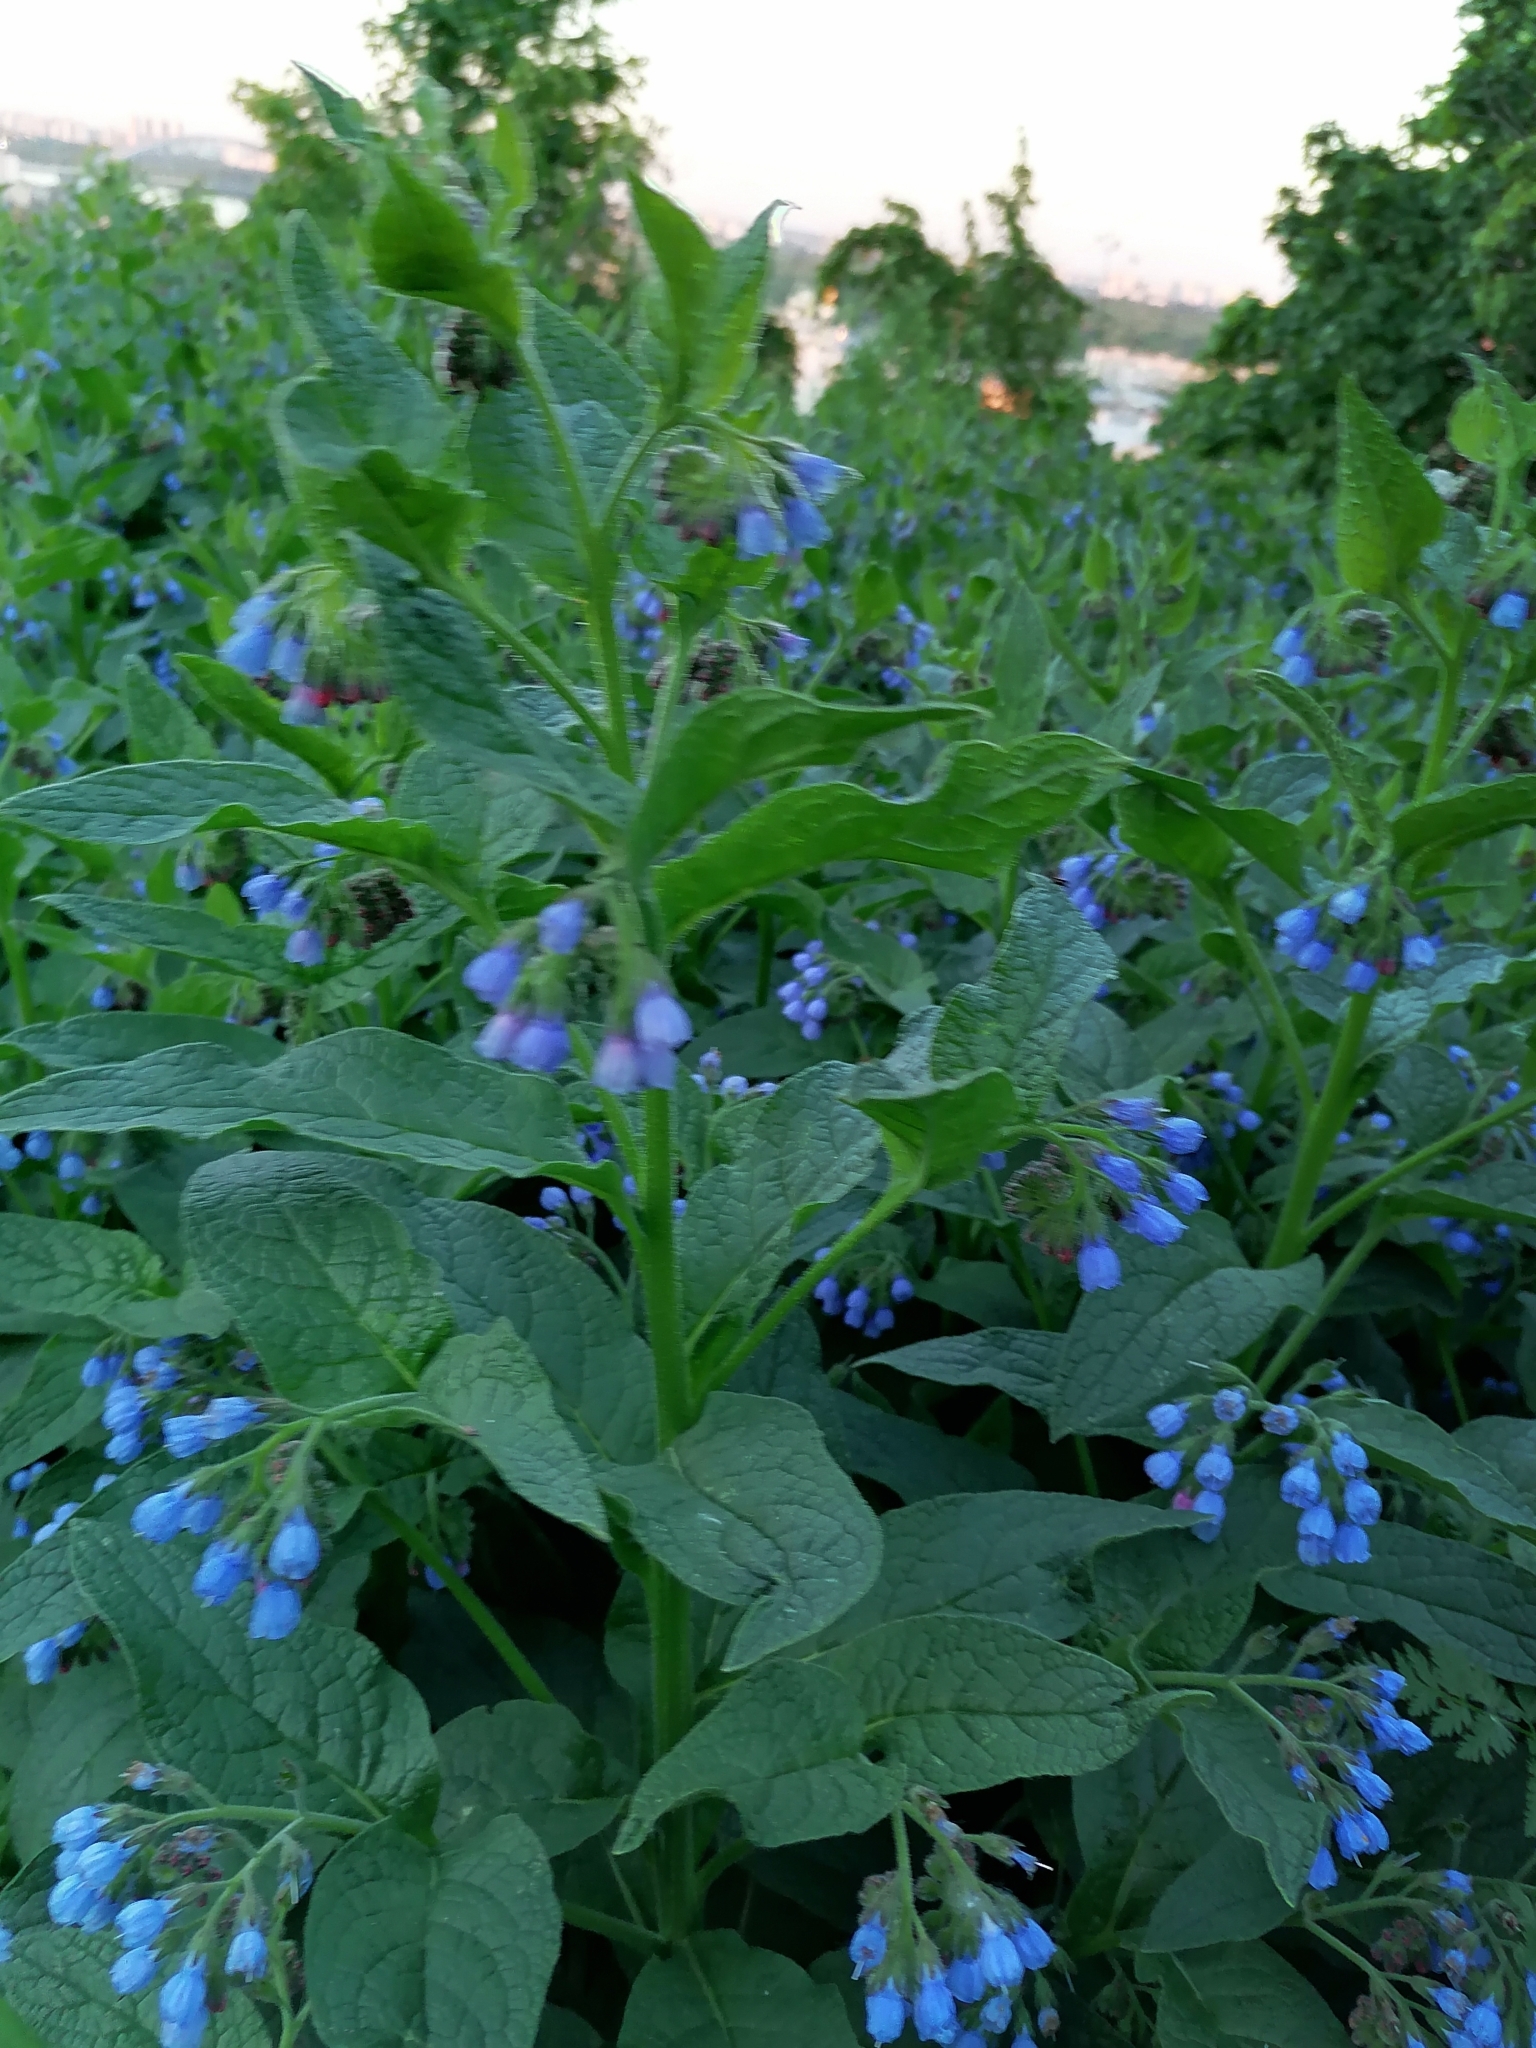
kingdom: Plantae
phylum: Tracheophyta
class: Magnoliopsida
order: Boraginales
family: Boraginaceae
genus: Symphytum
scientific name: Symphytum caucasicum
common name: Caucasian comfrey
